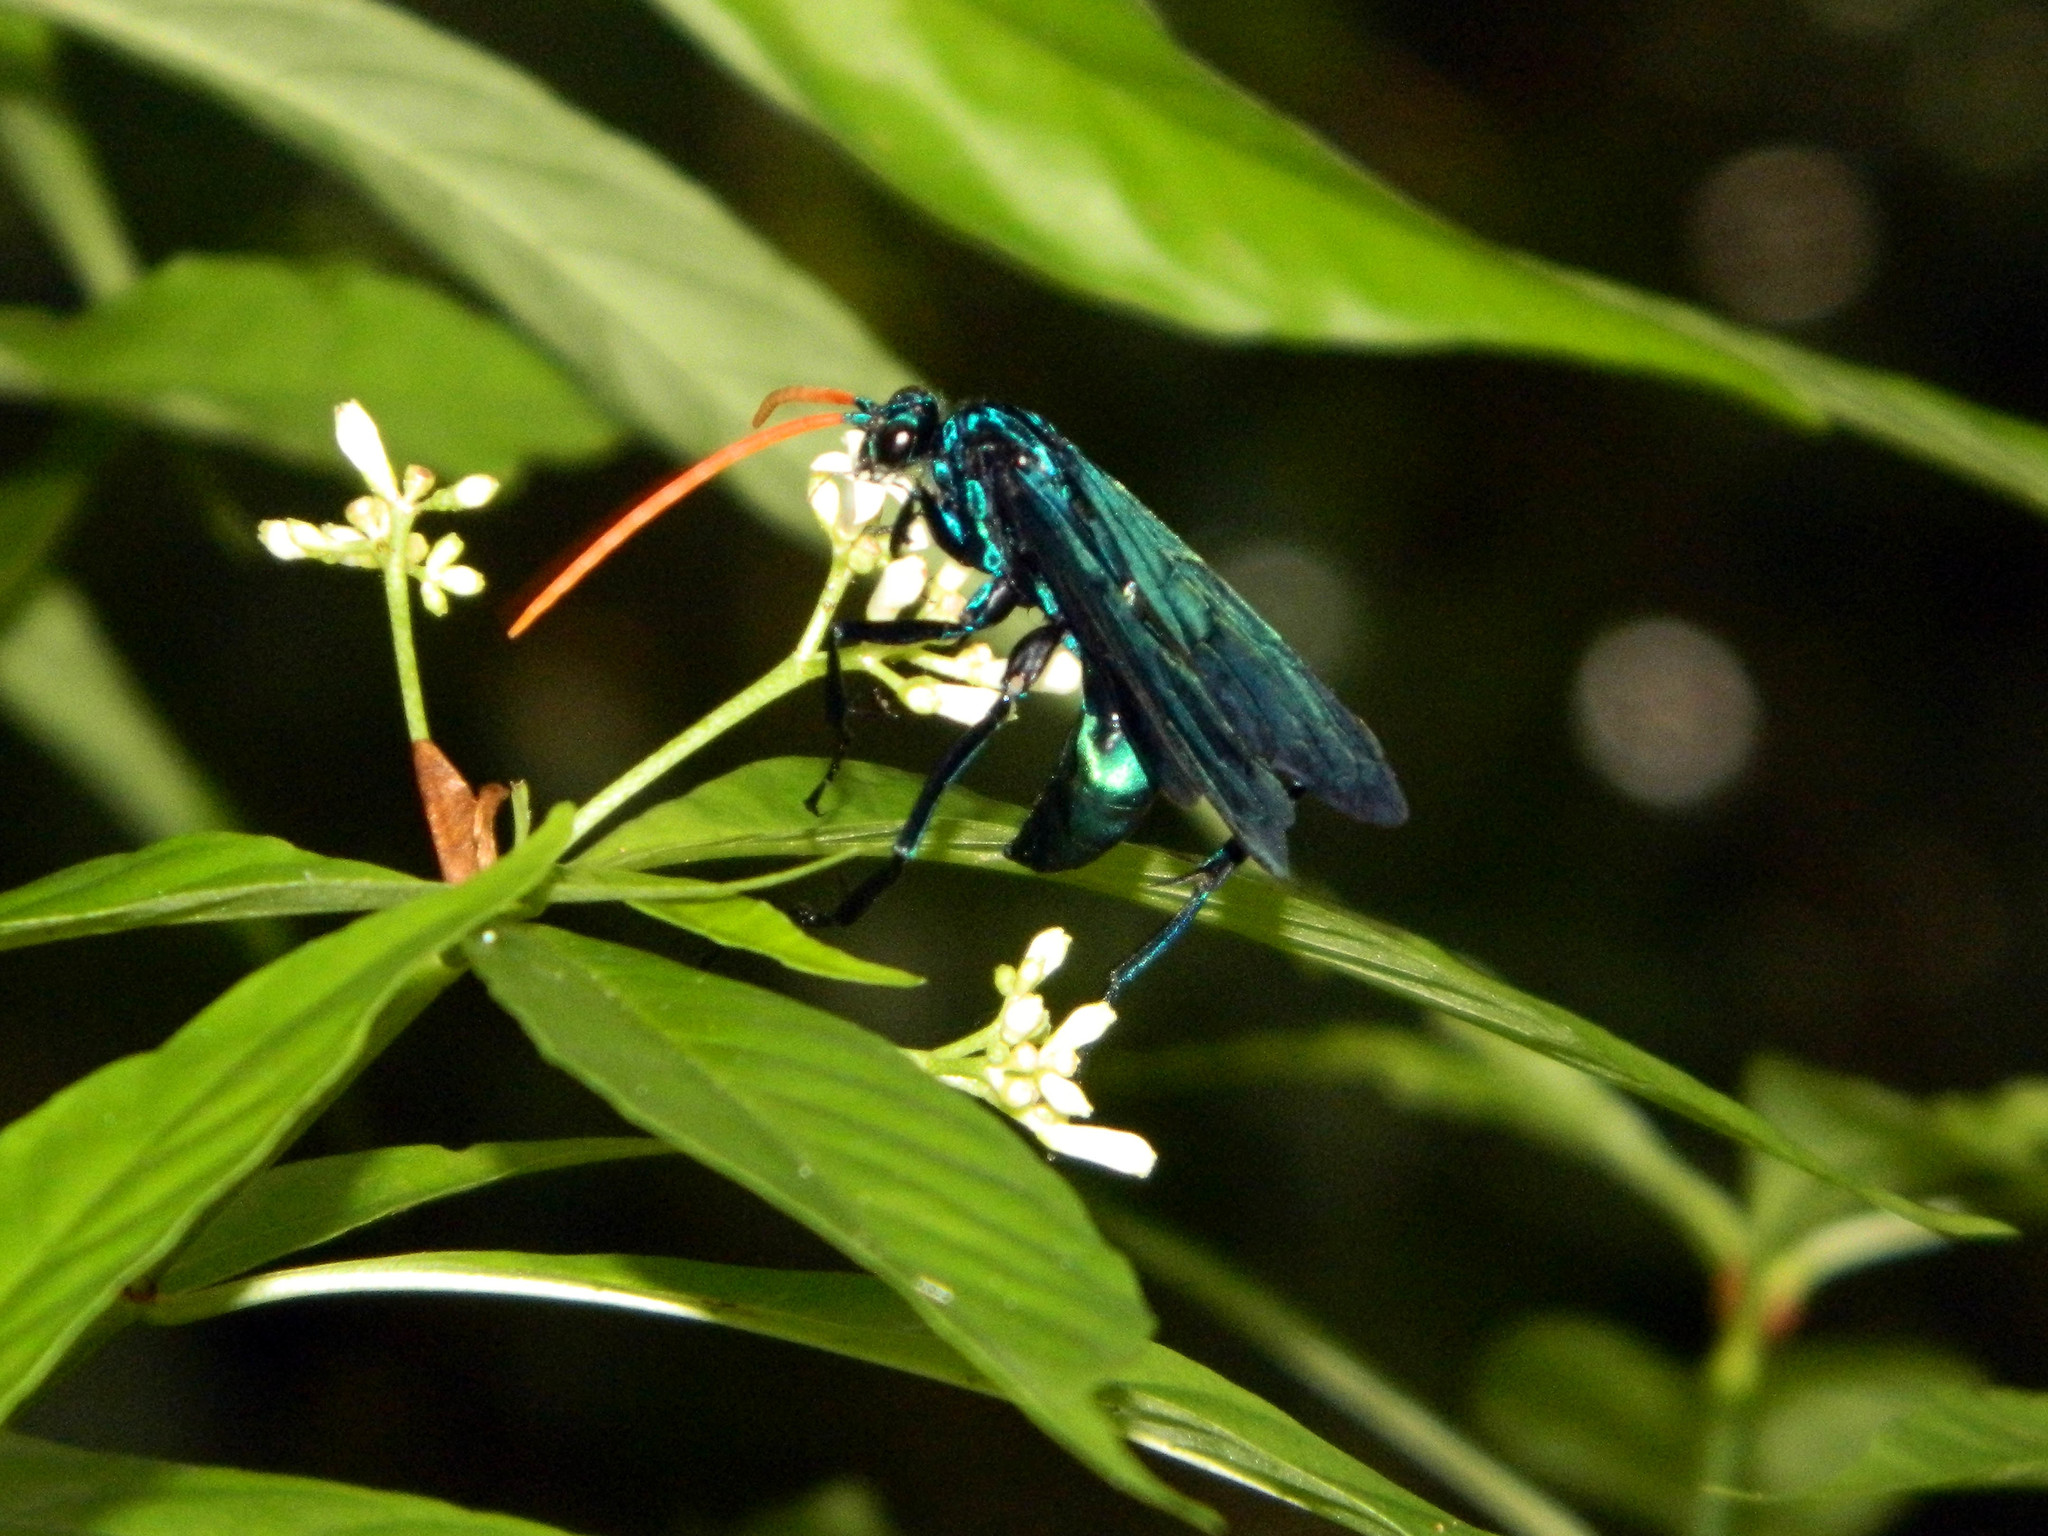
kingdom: Animalia
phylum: Arthropoda
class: Insecta
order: Hymenoptera
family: Pompilidae
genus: Pepsis
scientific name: Pepsis ruficornis
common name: Orange-horned tarantula hawk
